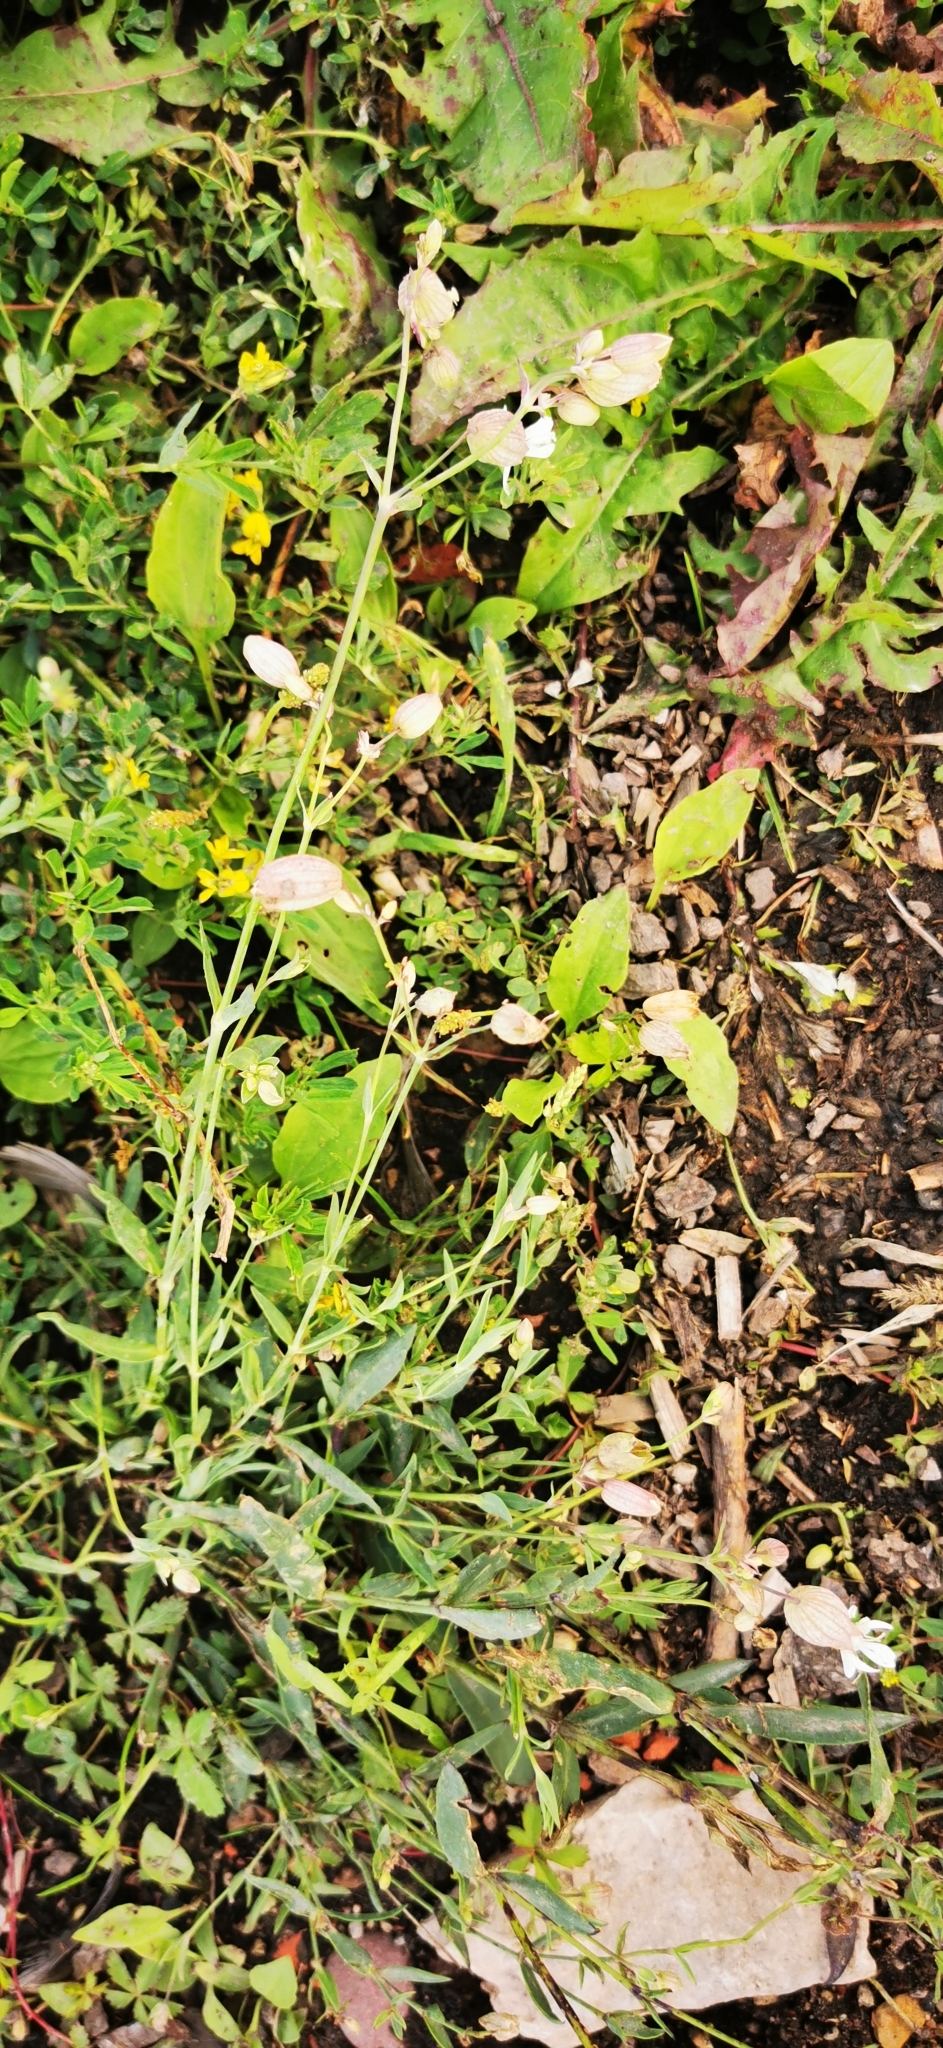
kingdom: Plantae
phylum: Tracheophyta
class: Magnoliopsida
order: Caryophyllales
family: Caryophyllaceae
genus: Silene
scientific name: Silene vulgaris
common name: Bladder campion
